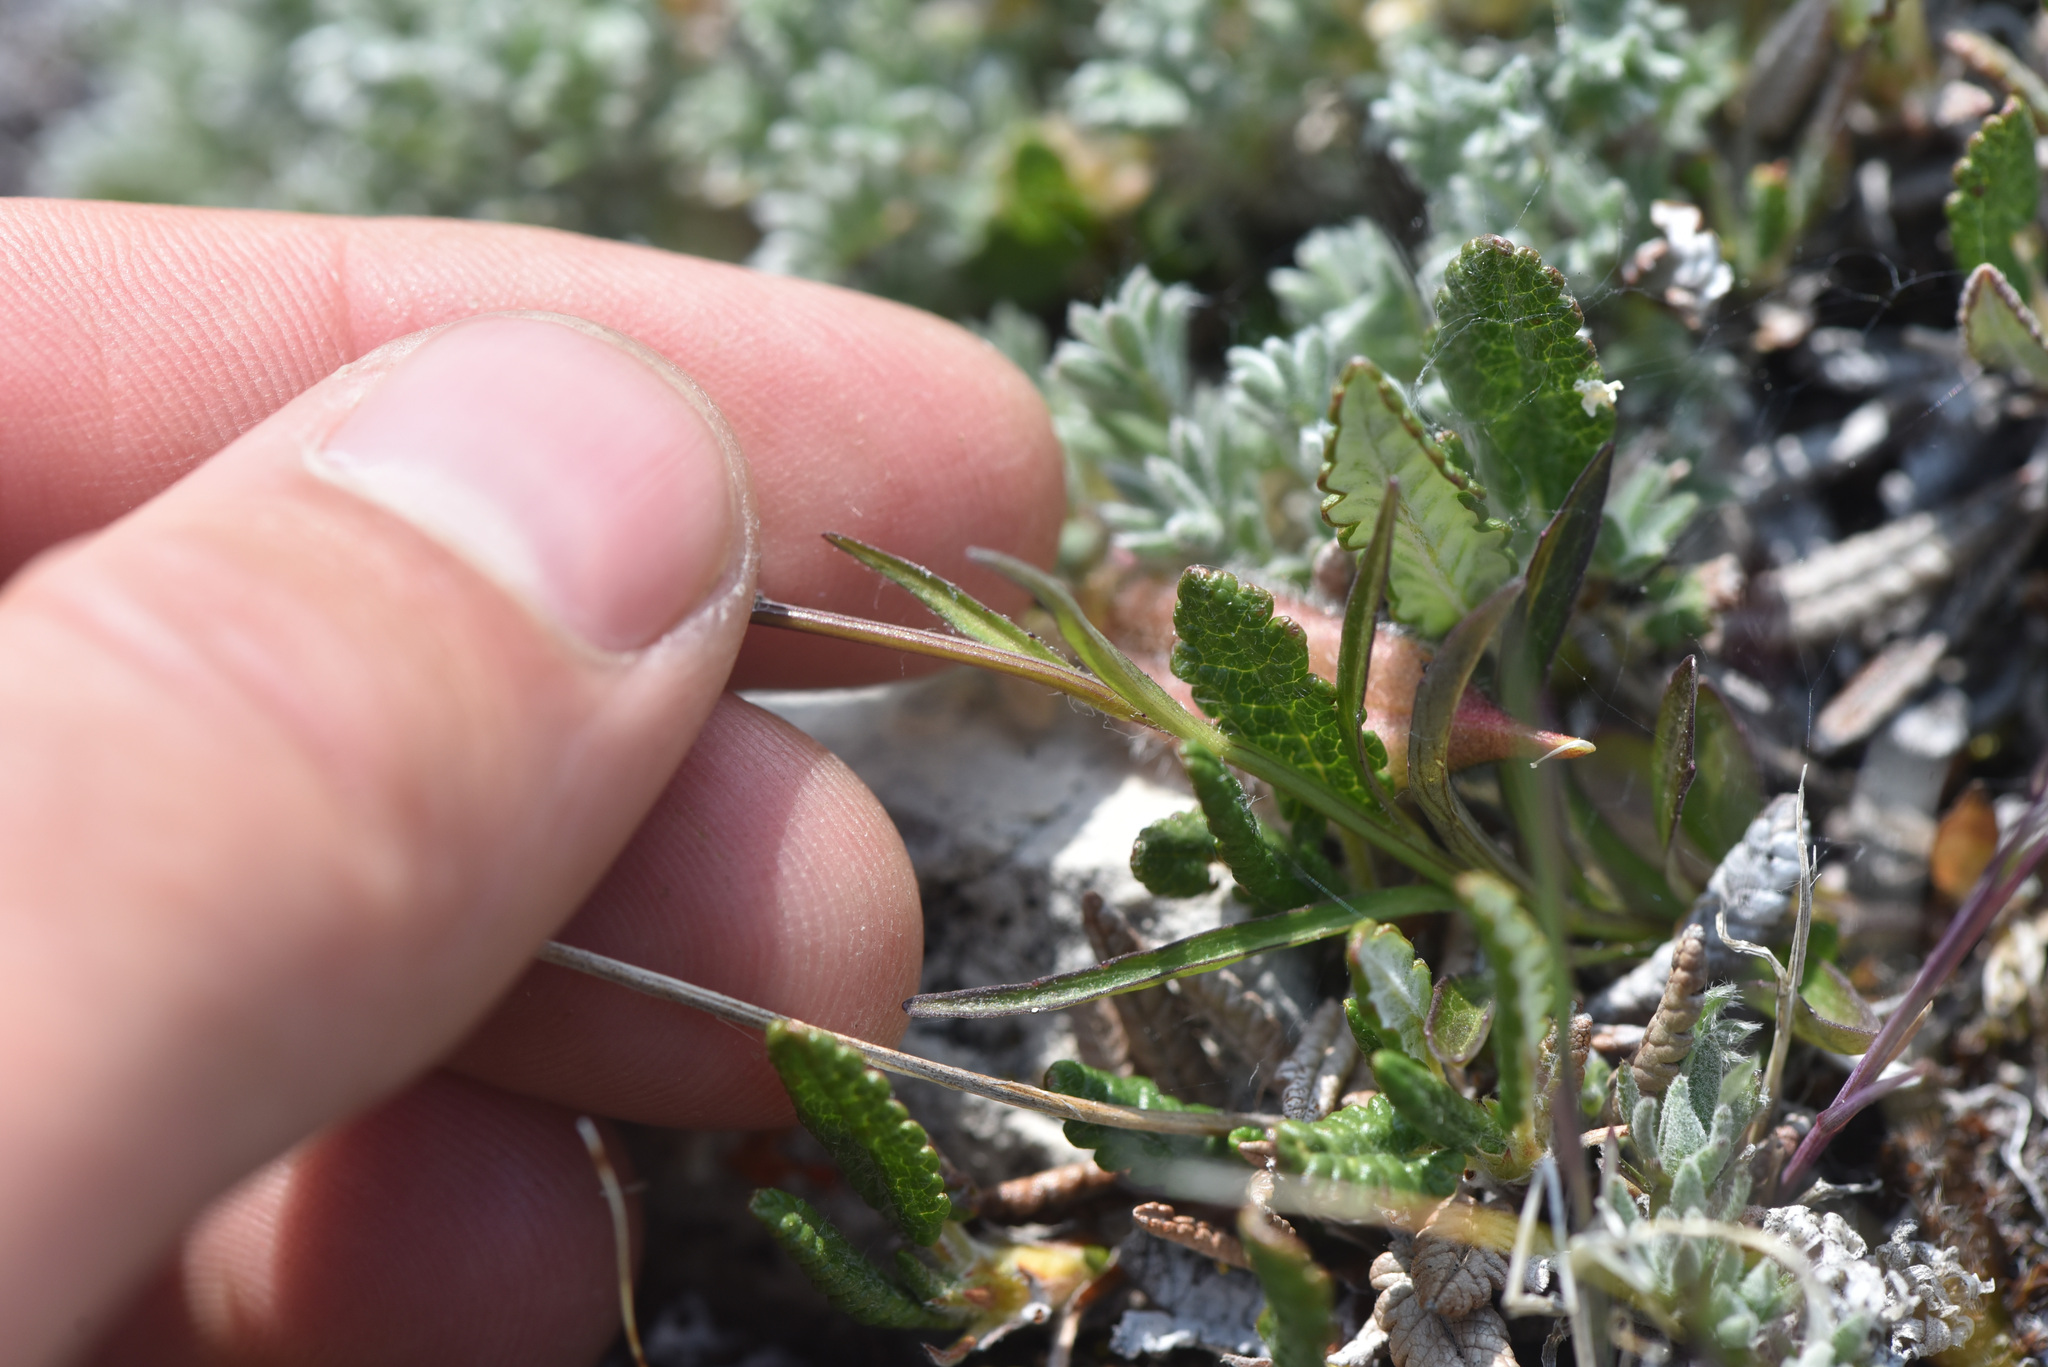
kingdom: Plantae
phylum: Tracheophyta
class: Magnoliopsida
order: Asterales
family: Campanulaceae
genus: Campanula
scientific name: Campanula uniflora
